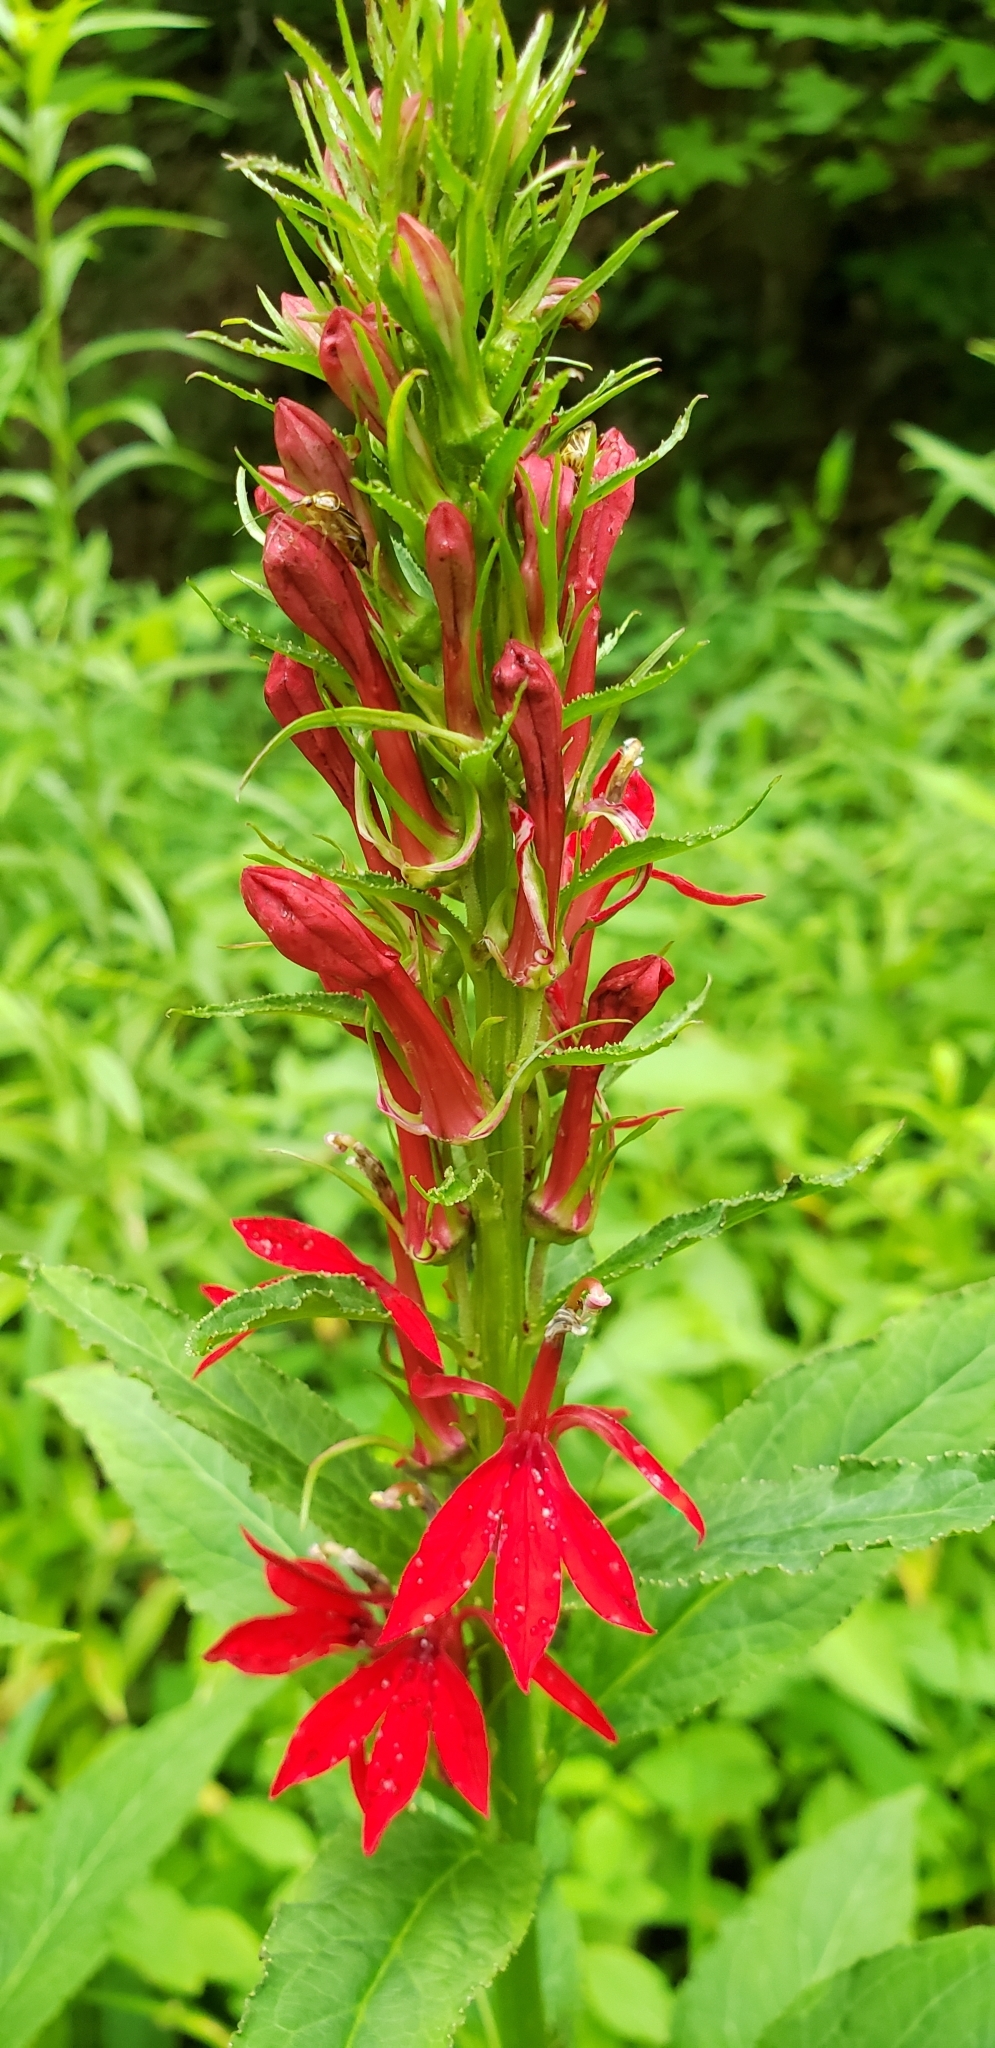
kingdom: Plantae
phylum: Tracheophyta
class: Magnoliopsida
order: Asterales
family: Campanulaceae
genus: Lobelia
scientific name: Lobelia cardinalis
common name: Cardinal flower
